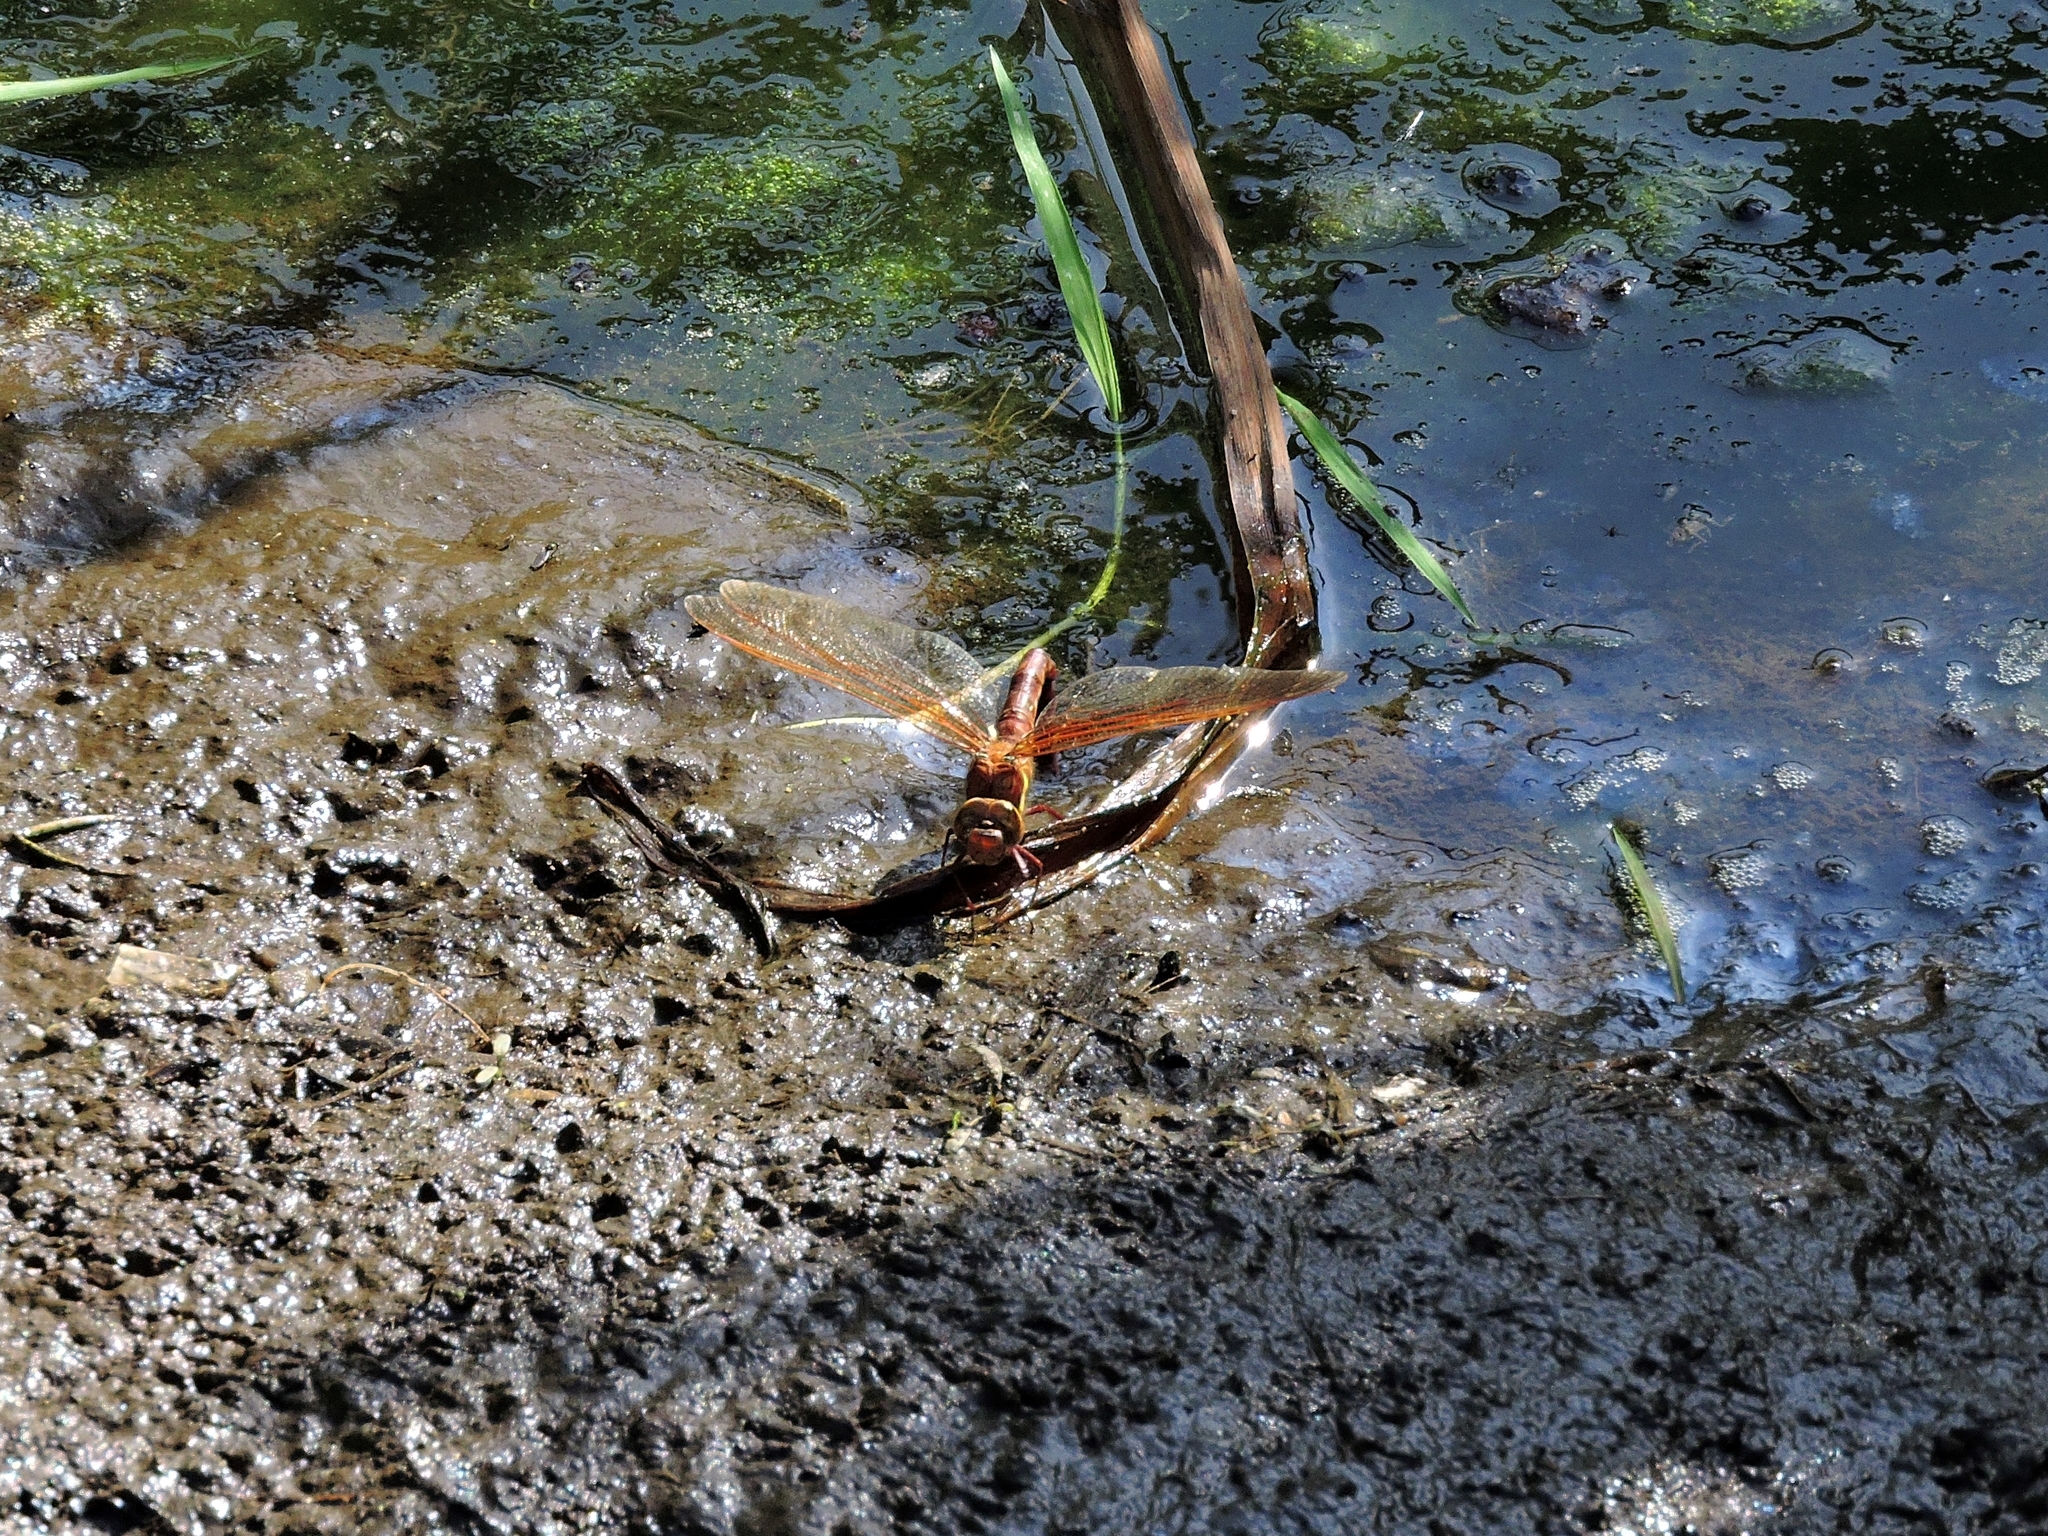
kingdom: Animalia
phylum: Arthropoda
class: Insecta
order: Odonata
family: Aeshnidae
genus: Aeshna
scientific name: Aeshna grandis
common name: Brown hawker
